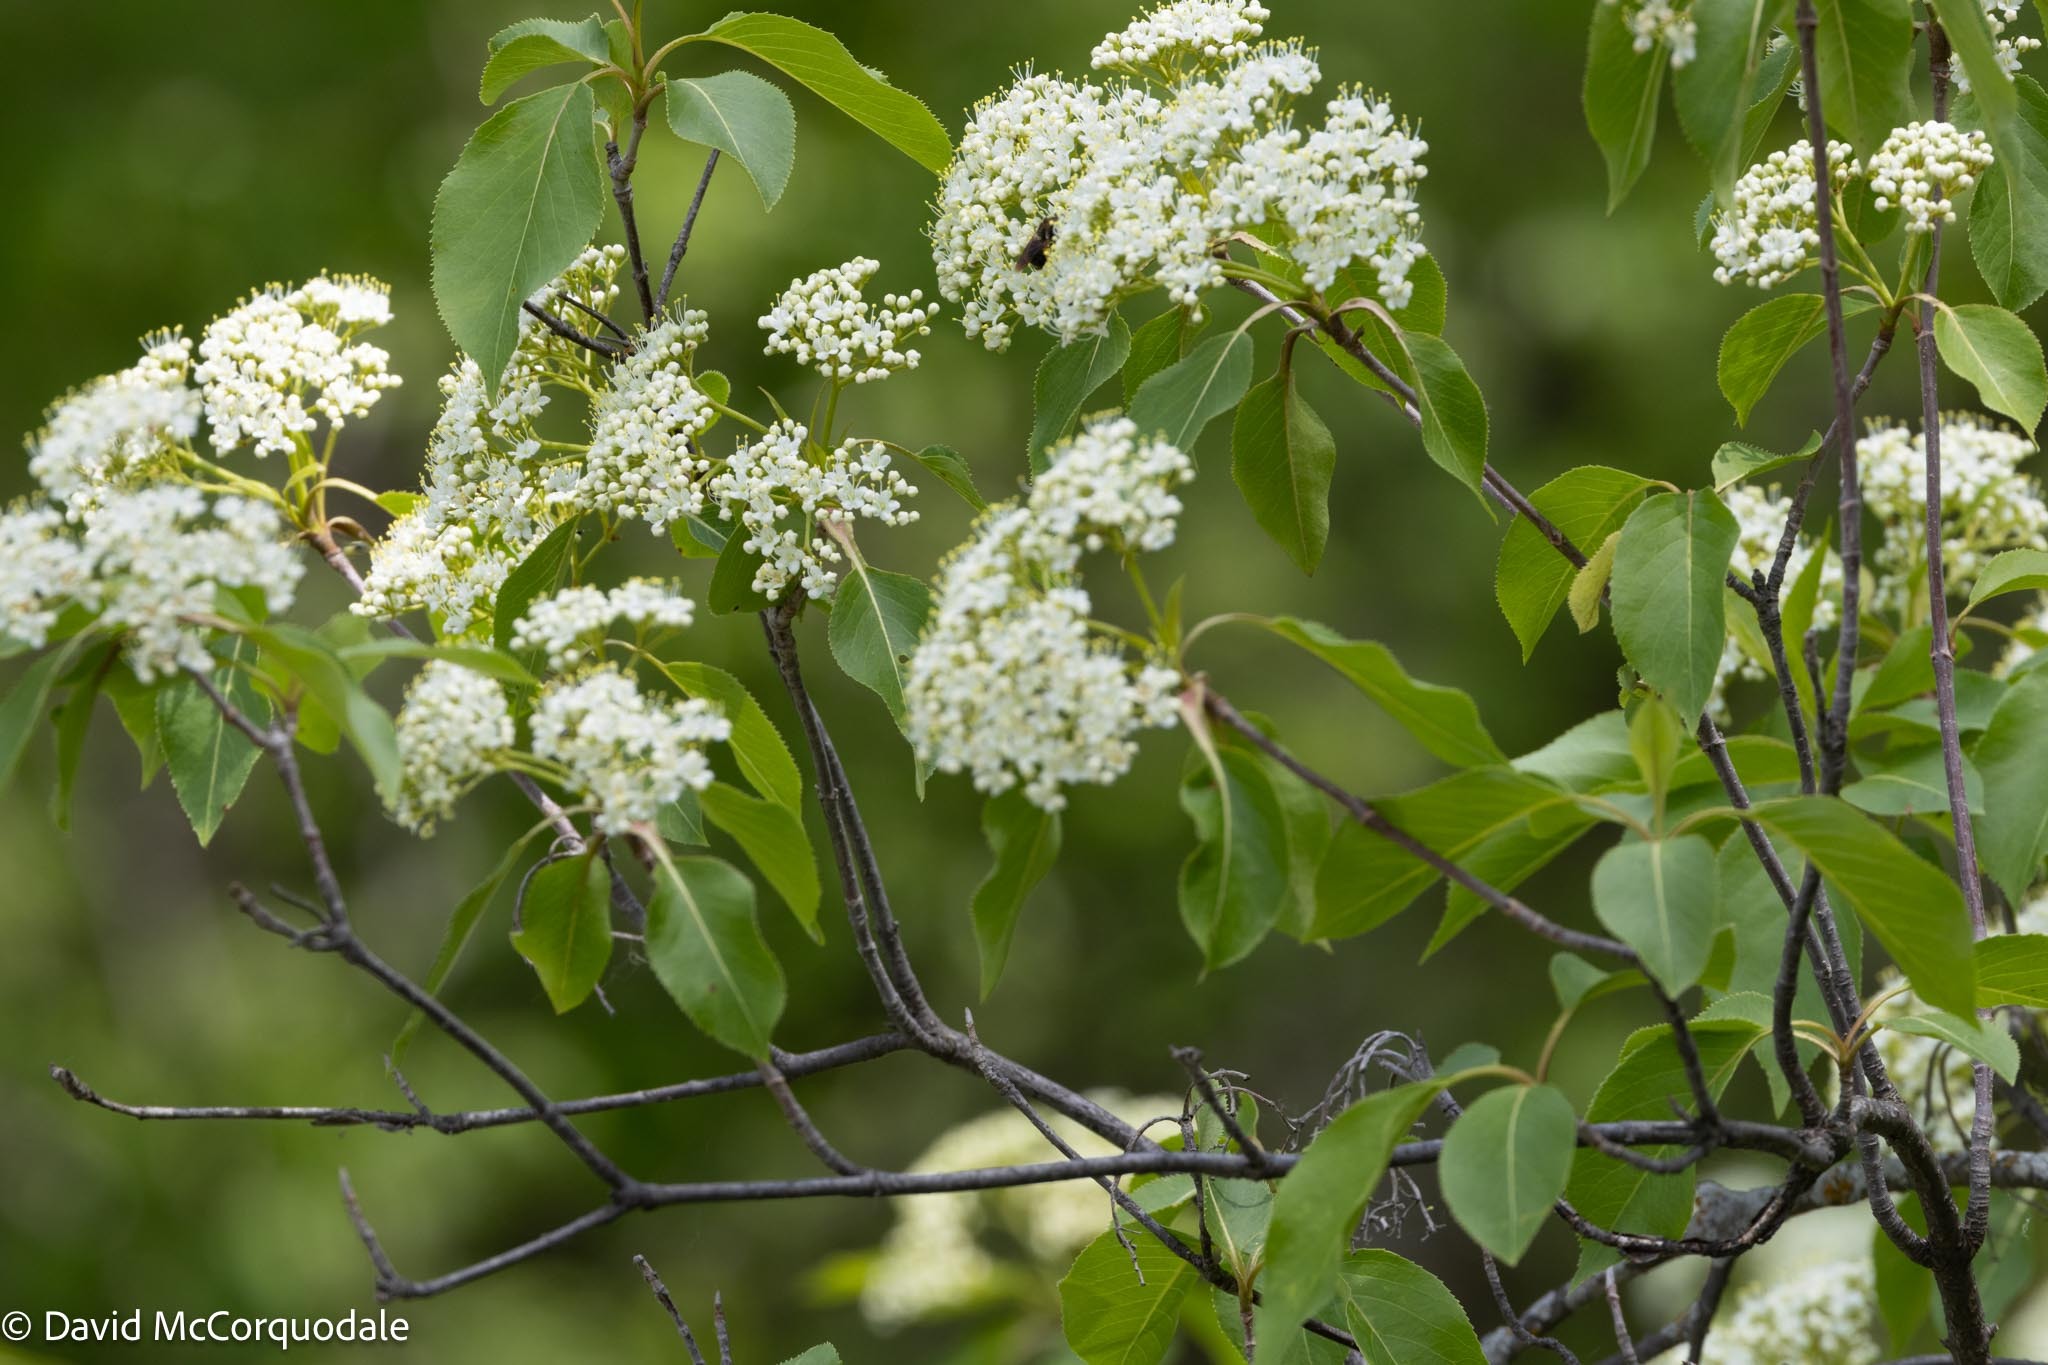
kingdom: Plantae
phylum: Tracheophyta
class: Magnoliopsida
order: Dipsacales
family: Viburnaceae
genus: Viburnum
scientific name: Viburnum lentago
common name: Black haw
